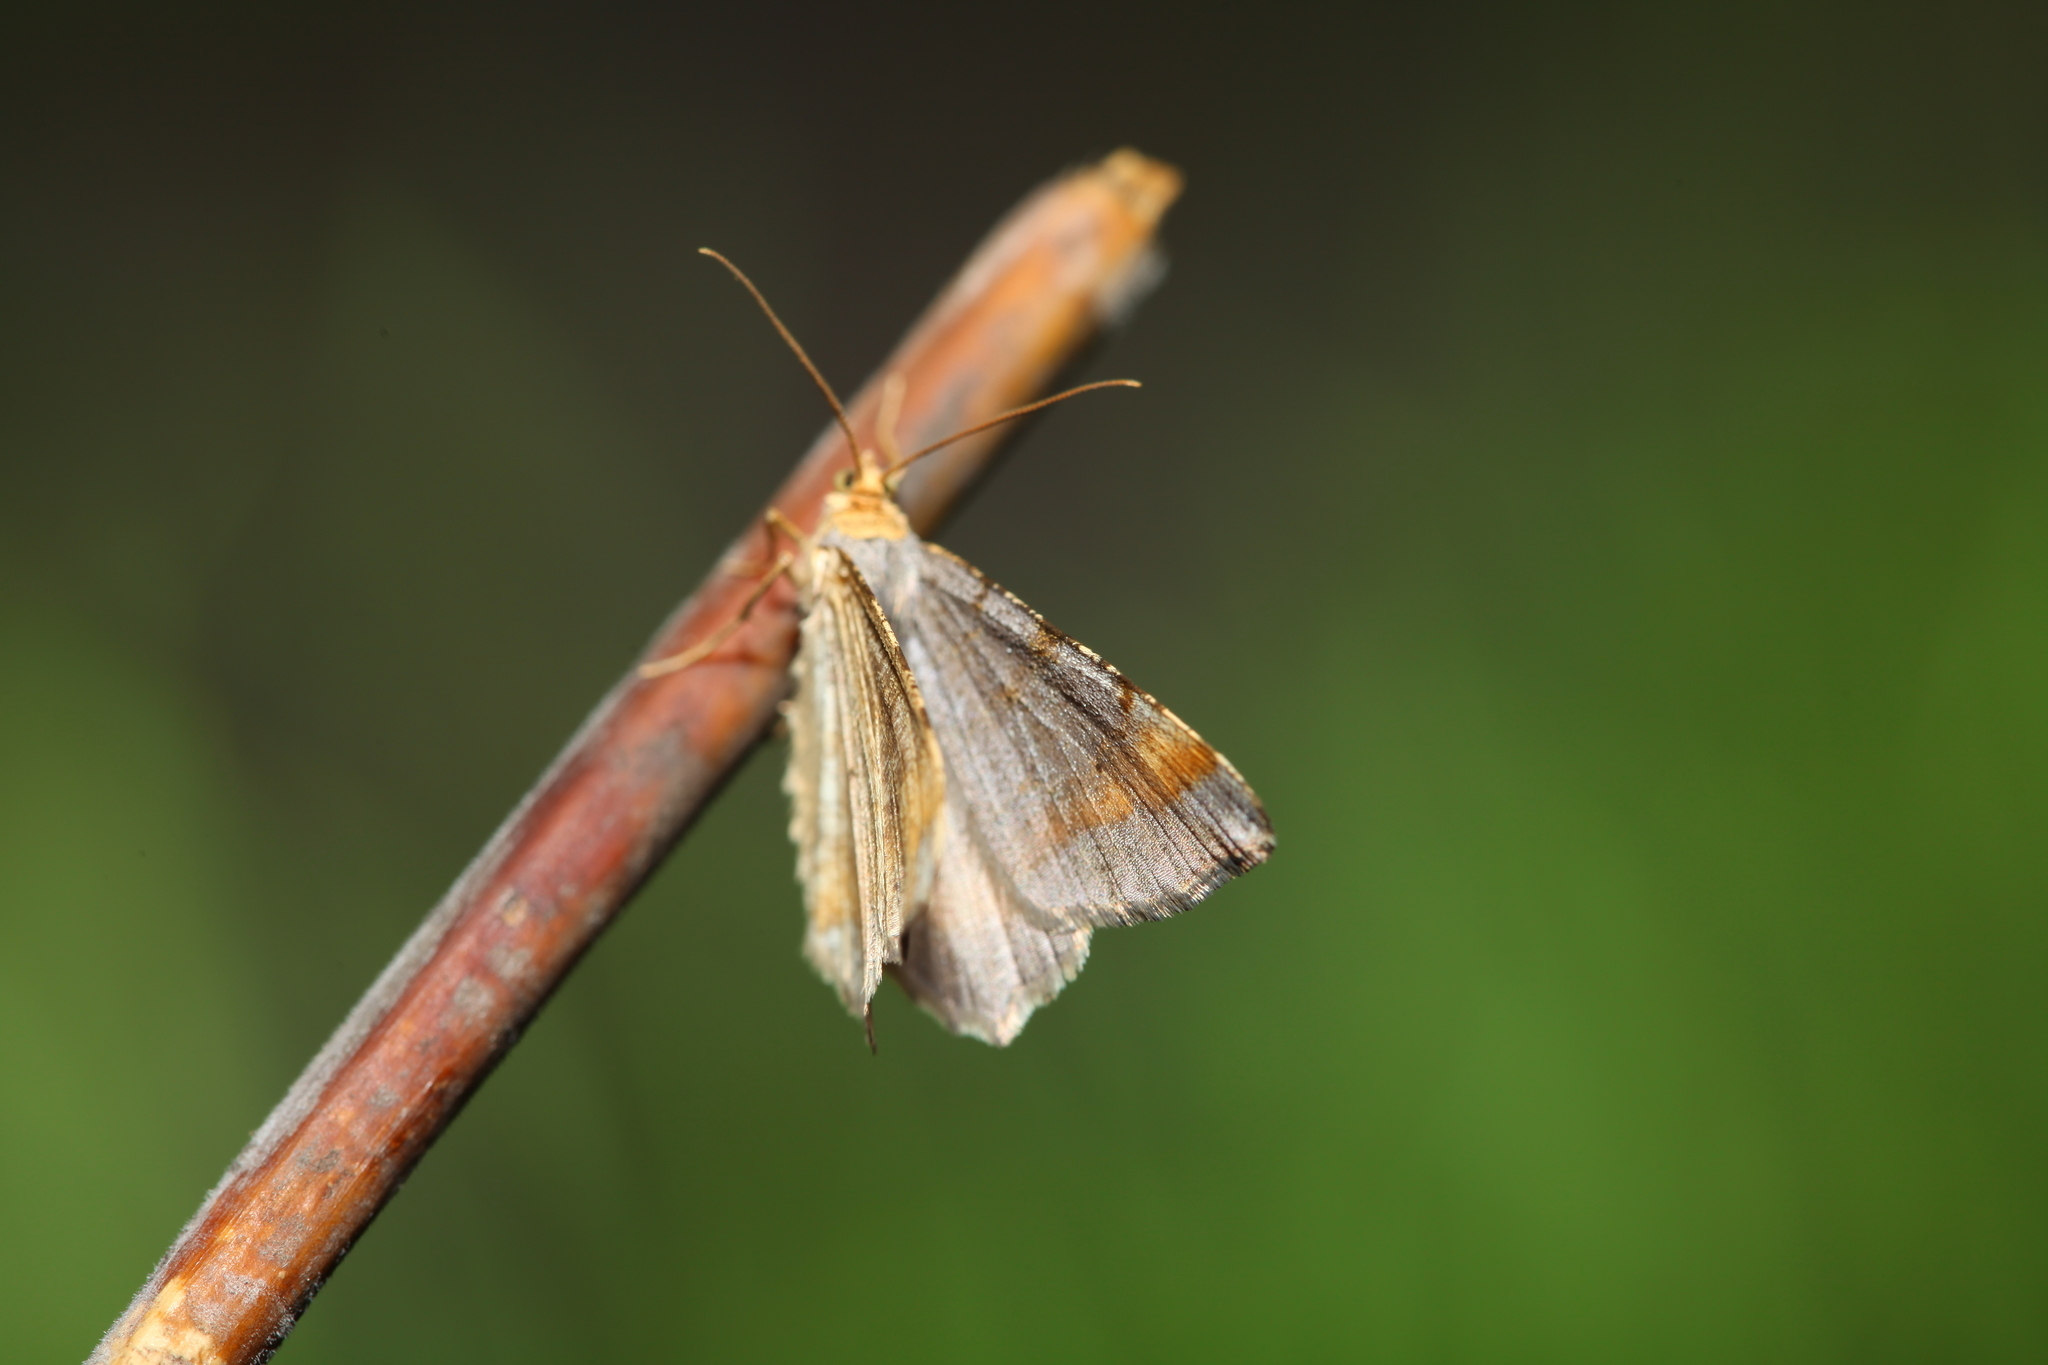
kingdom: Animalia
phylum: Arthropoda
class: Insecta
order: Lepidoptera
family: Geometridae
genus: Macaria
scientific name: Macaria liturata
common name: Tawny-barred angle
